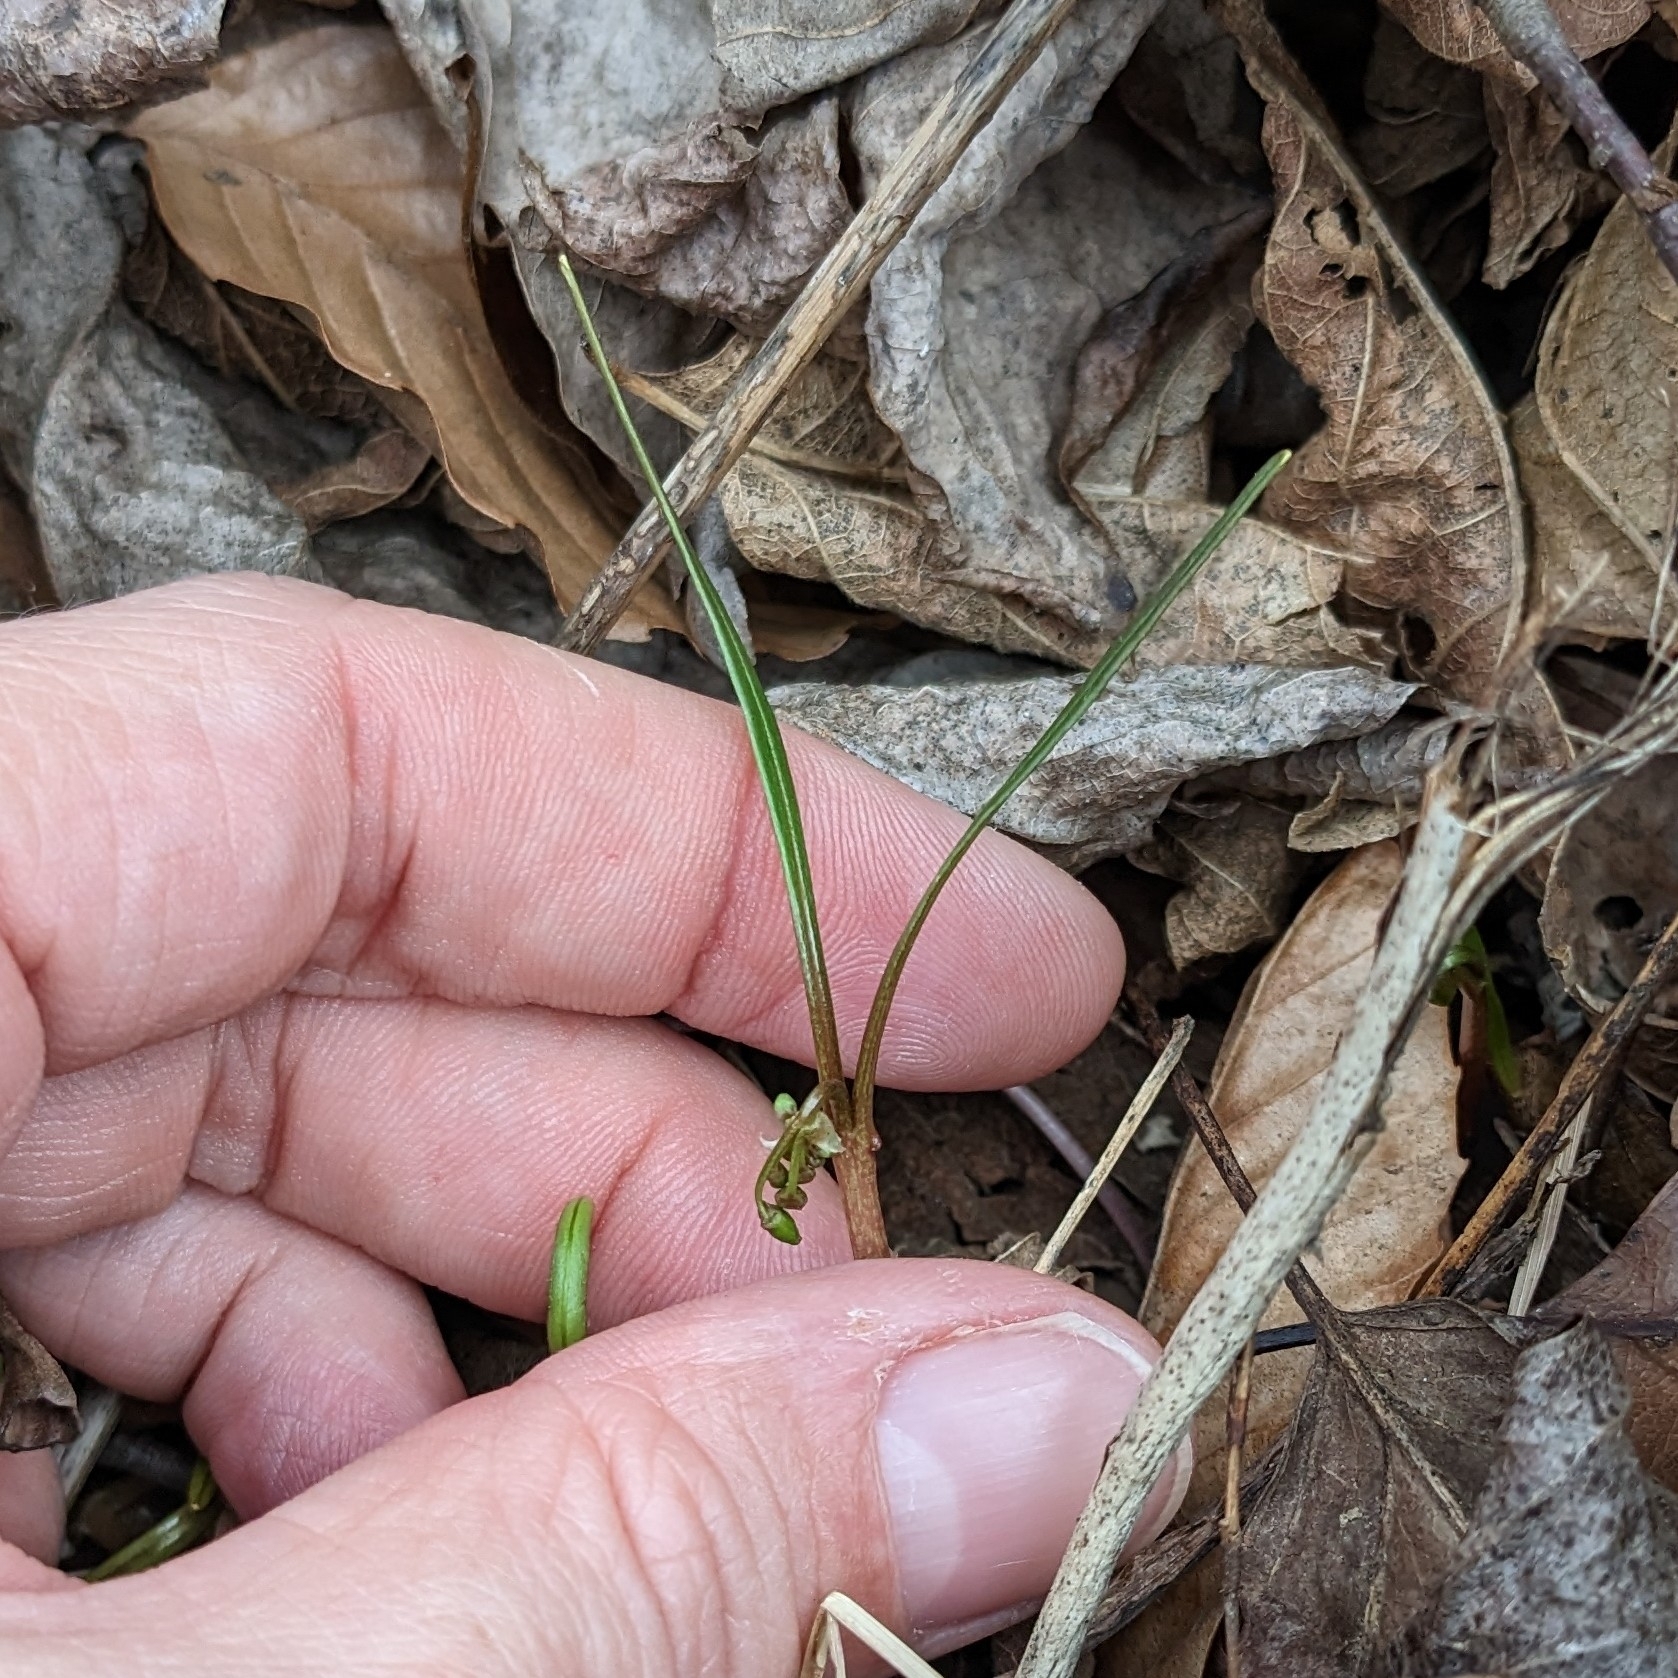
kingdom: Plantae
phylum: Tracheophyta
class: Magnoliopsida
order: Caryophyllales
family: Montiaceae
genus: Claytonia
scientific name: Claytonia virginica
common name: Virginia springbeauty
